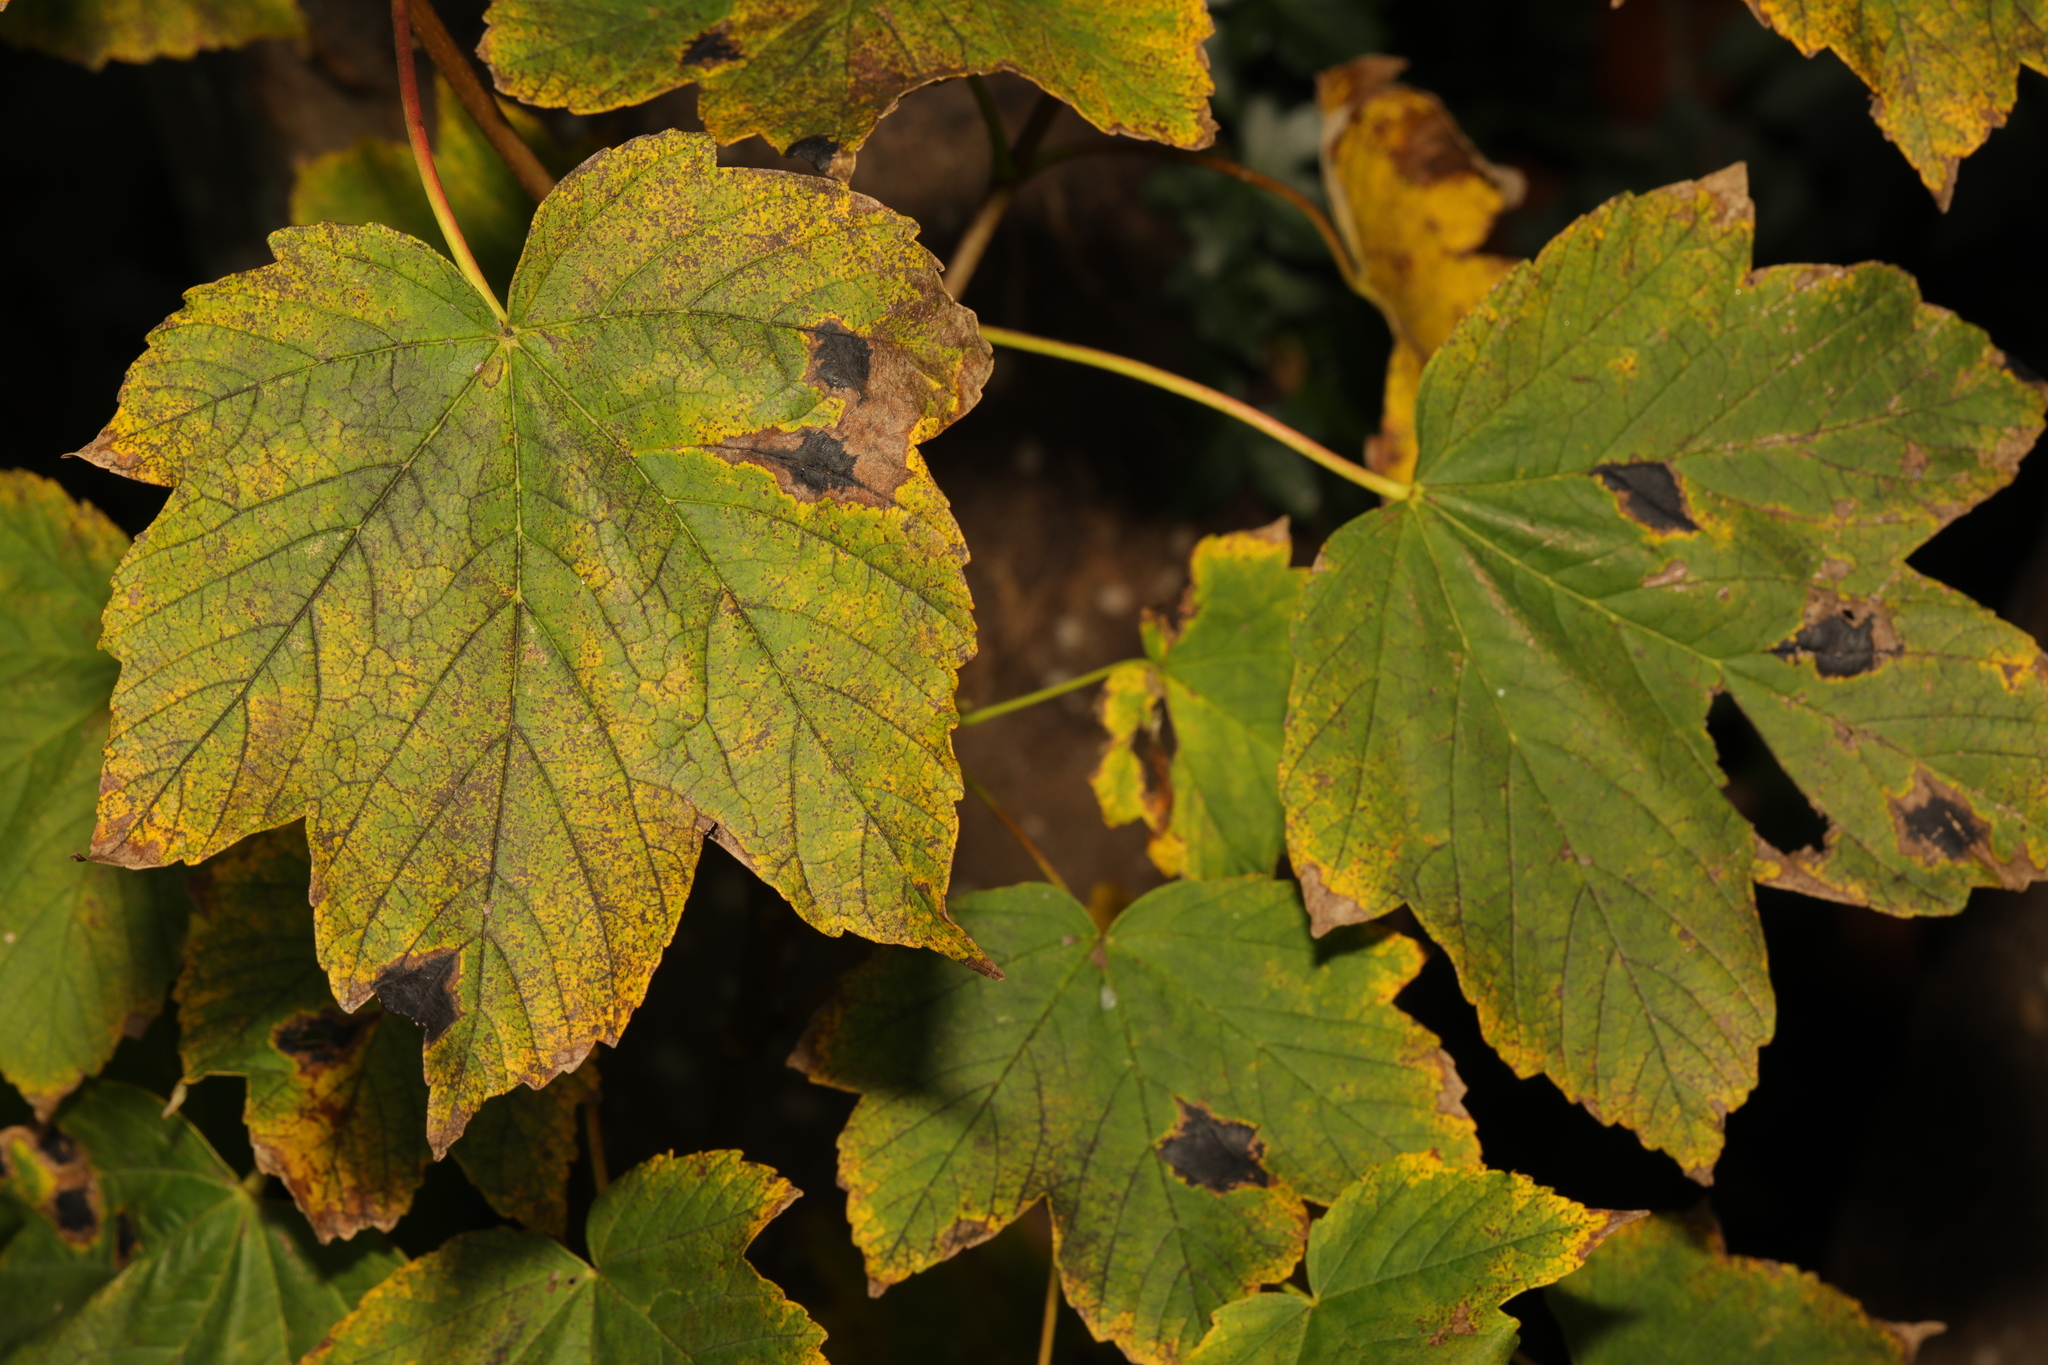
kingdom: Plantae
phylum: Tracheophyta
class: Magnoliopsida
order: Sapindales
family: Sapindaceae
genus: Acer
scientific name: Acer pseudoplatanus
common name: Sycamore
